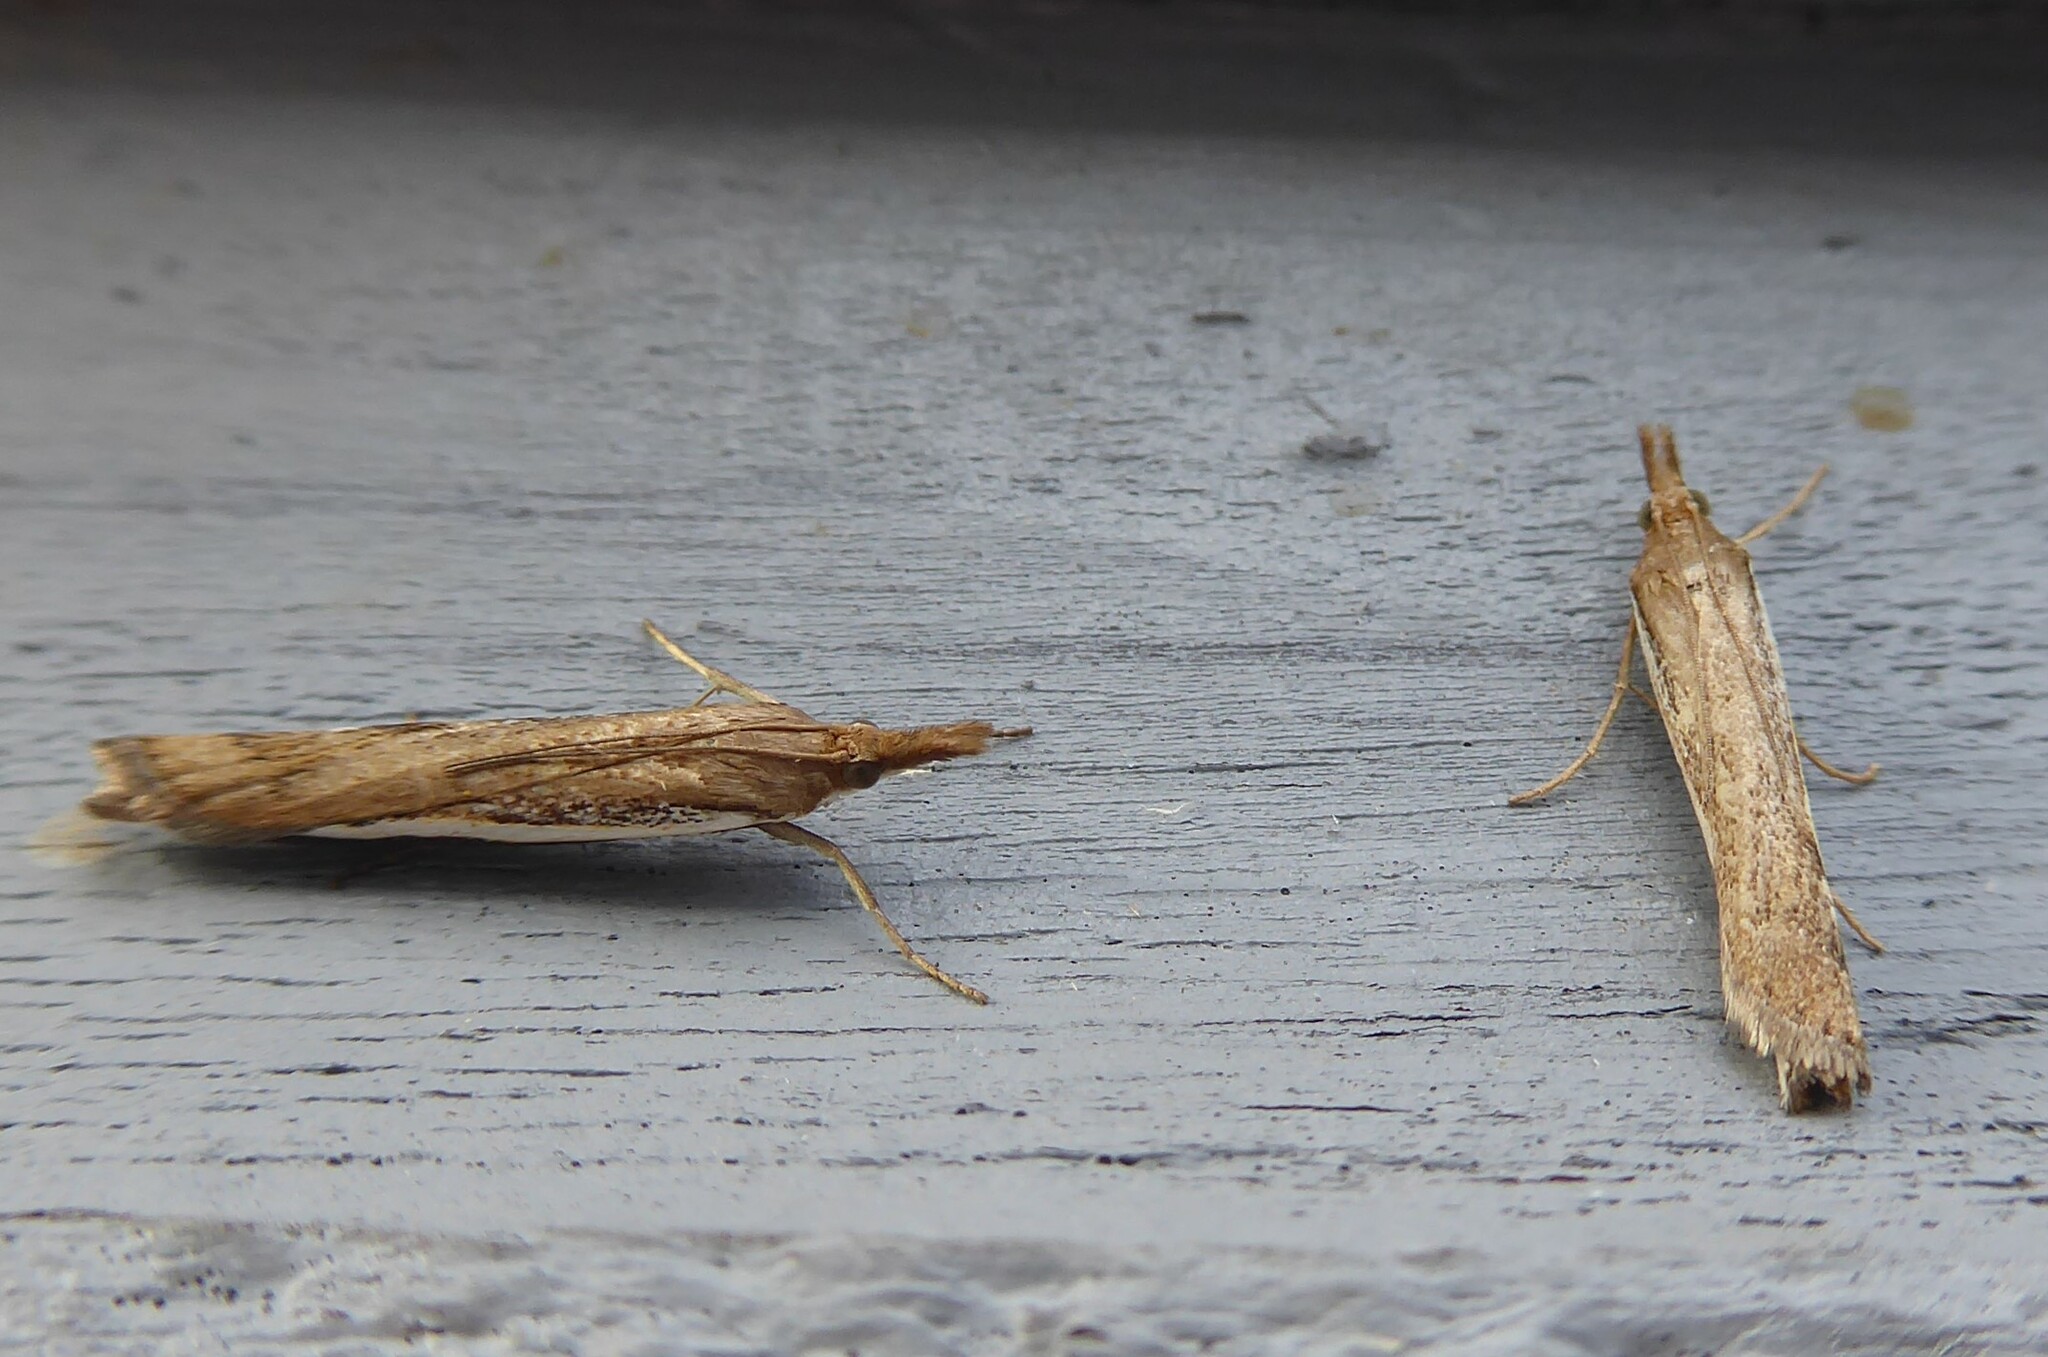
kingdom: Animalia
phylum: Arthropoda
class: Insecta
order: Lepidoptera
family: Crambidae
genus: Orocrambus
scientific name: Orocrambus flexuosellus
